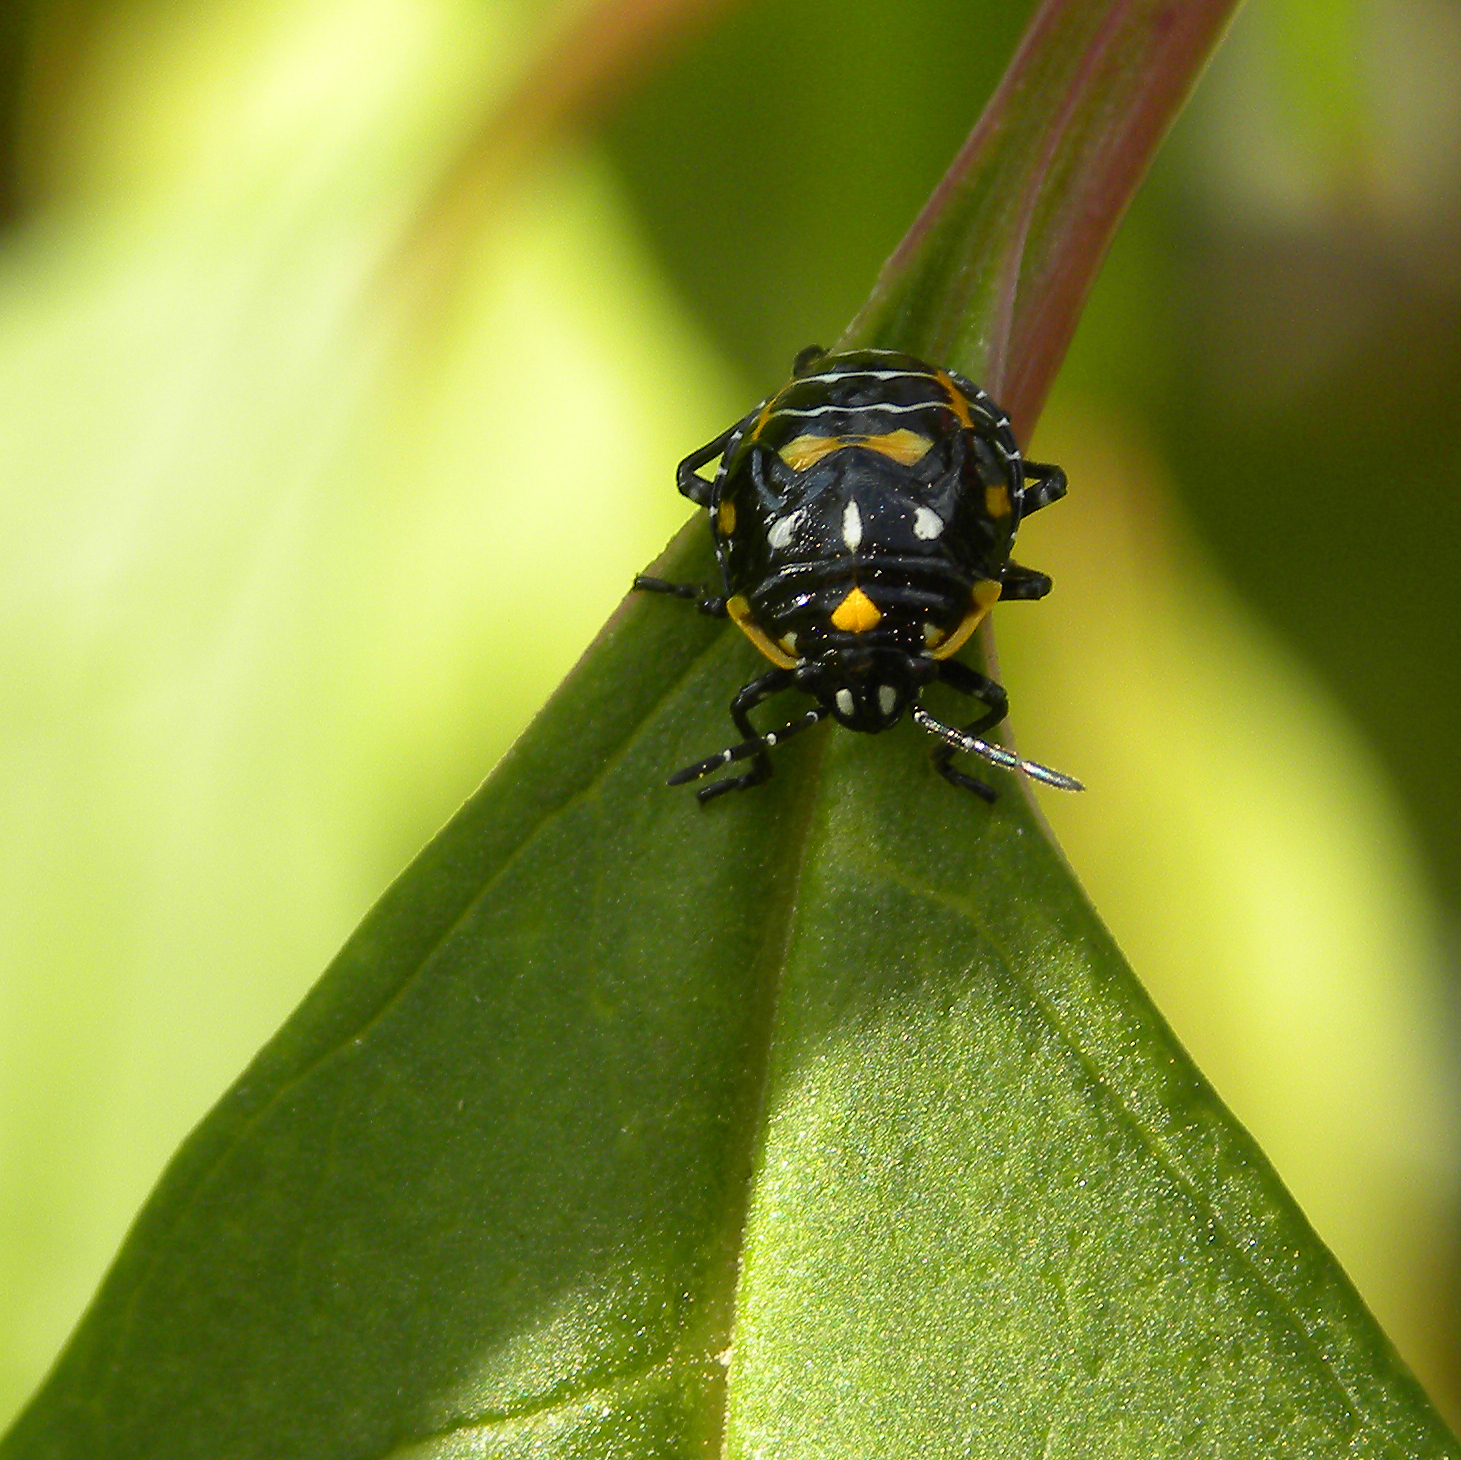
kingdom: Animalia
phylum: Arthropoda
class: Insecta
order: Hemiptera
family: Pentatomidae
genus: Murgantia
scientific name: Murgantia histrionica
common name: Harlequin bug
